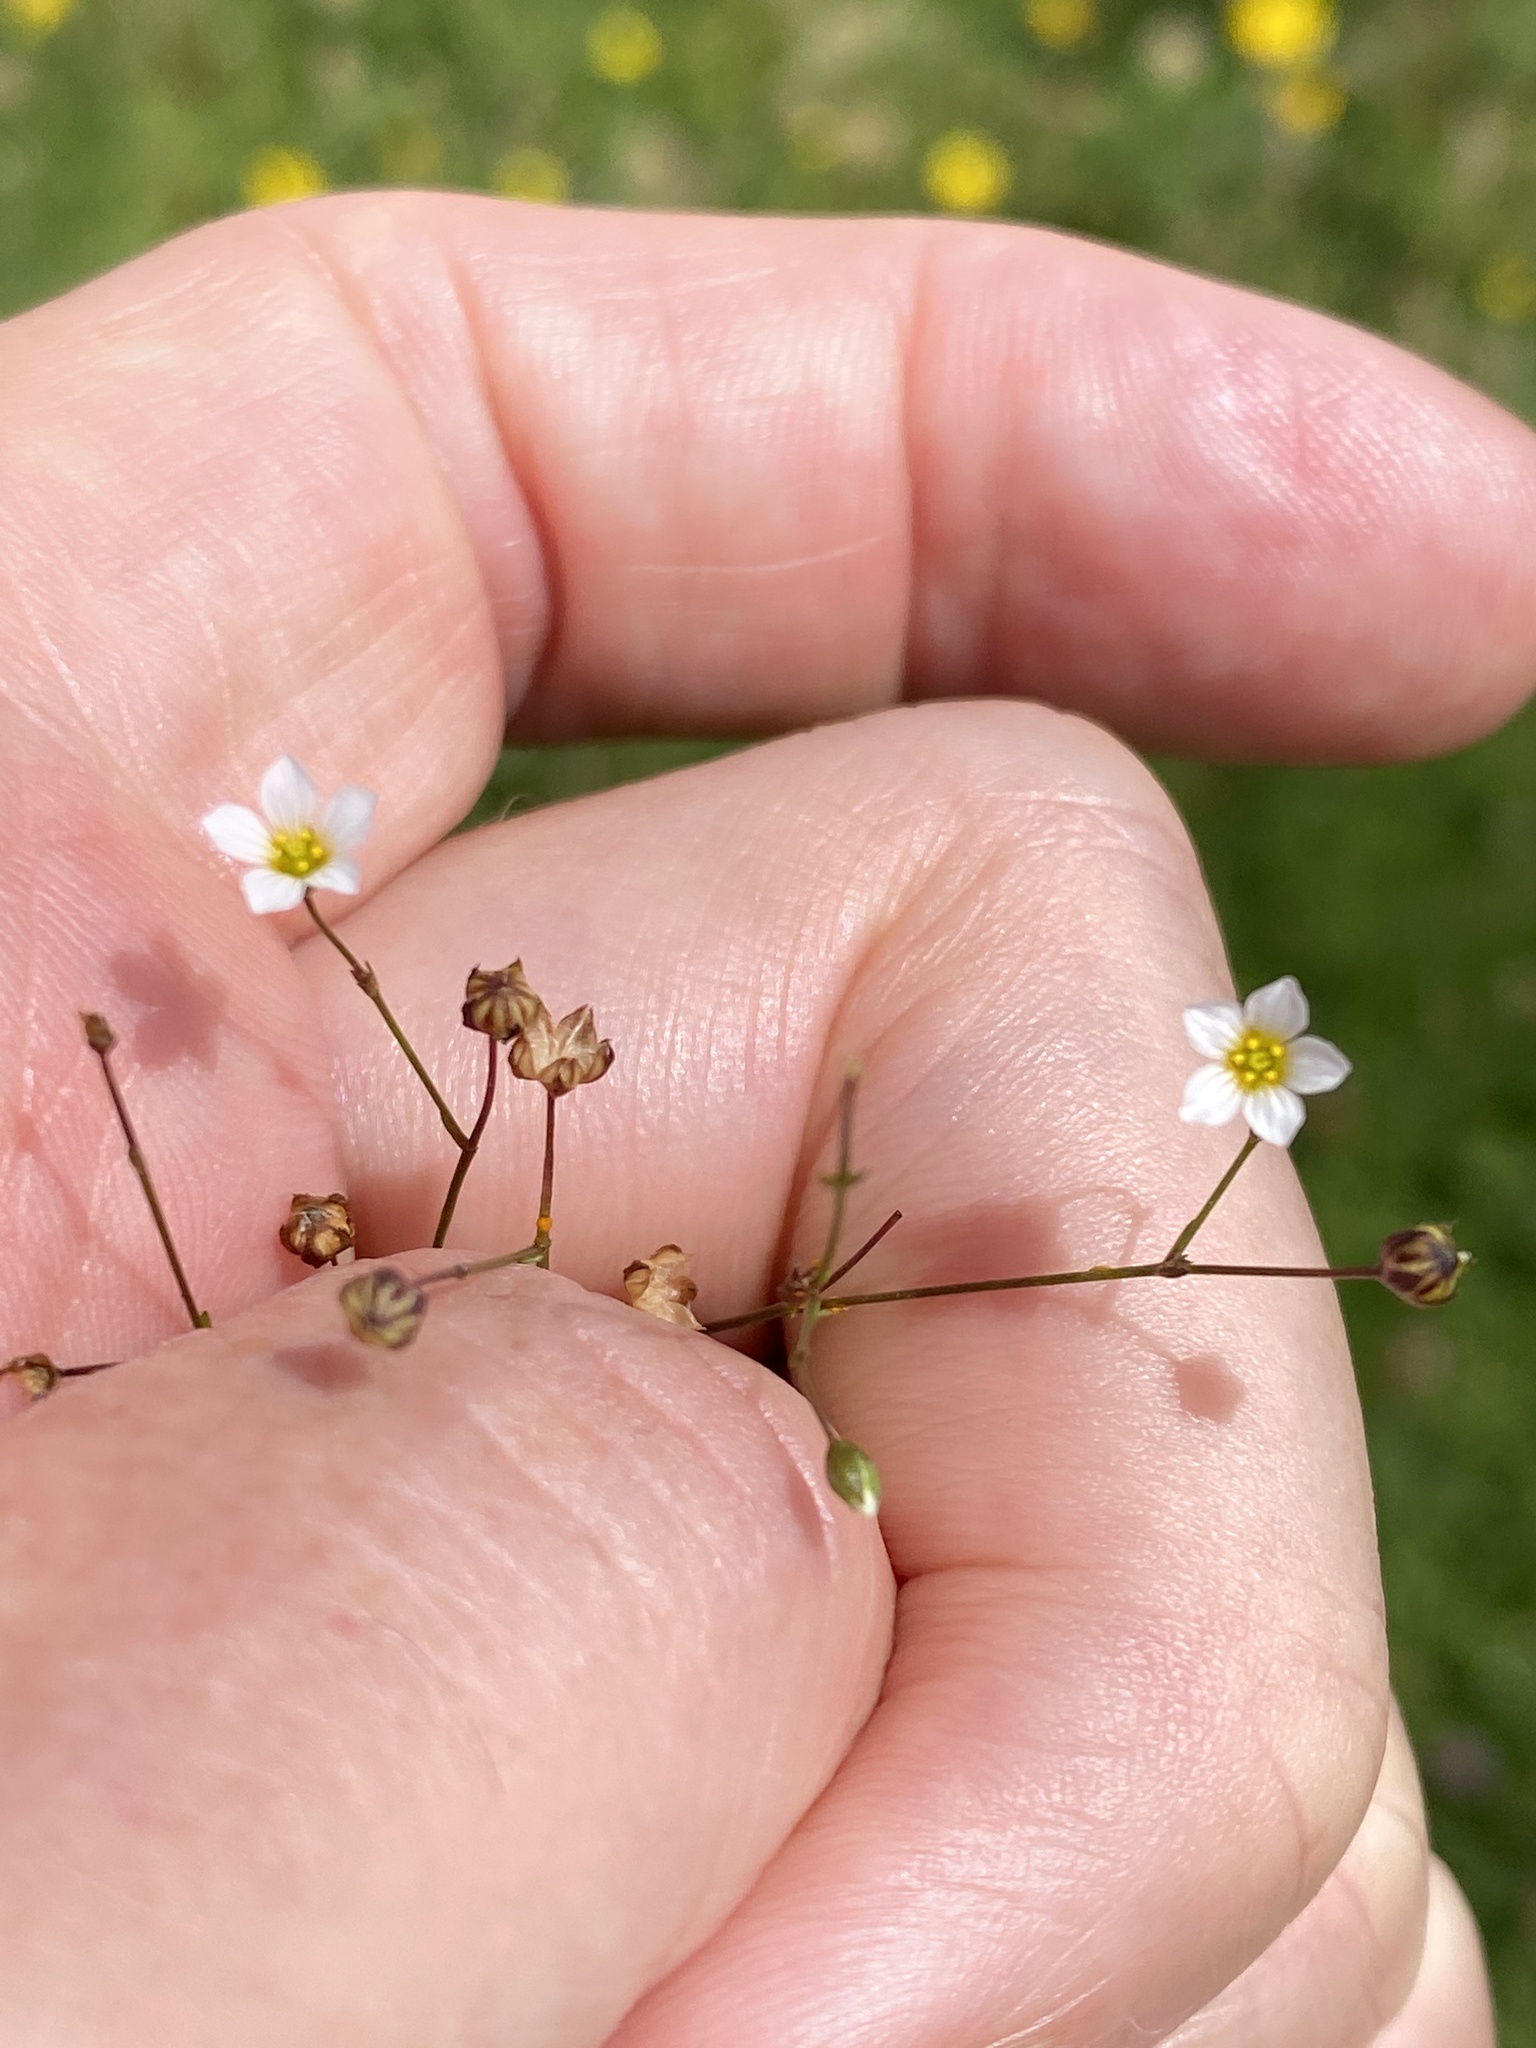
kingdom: Plantae
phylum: Tracheophyta
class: Magnoliopsida
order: Malpighiales
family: Linaceae
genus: Linum
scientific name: Linum catharticum
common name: Fairy flax
